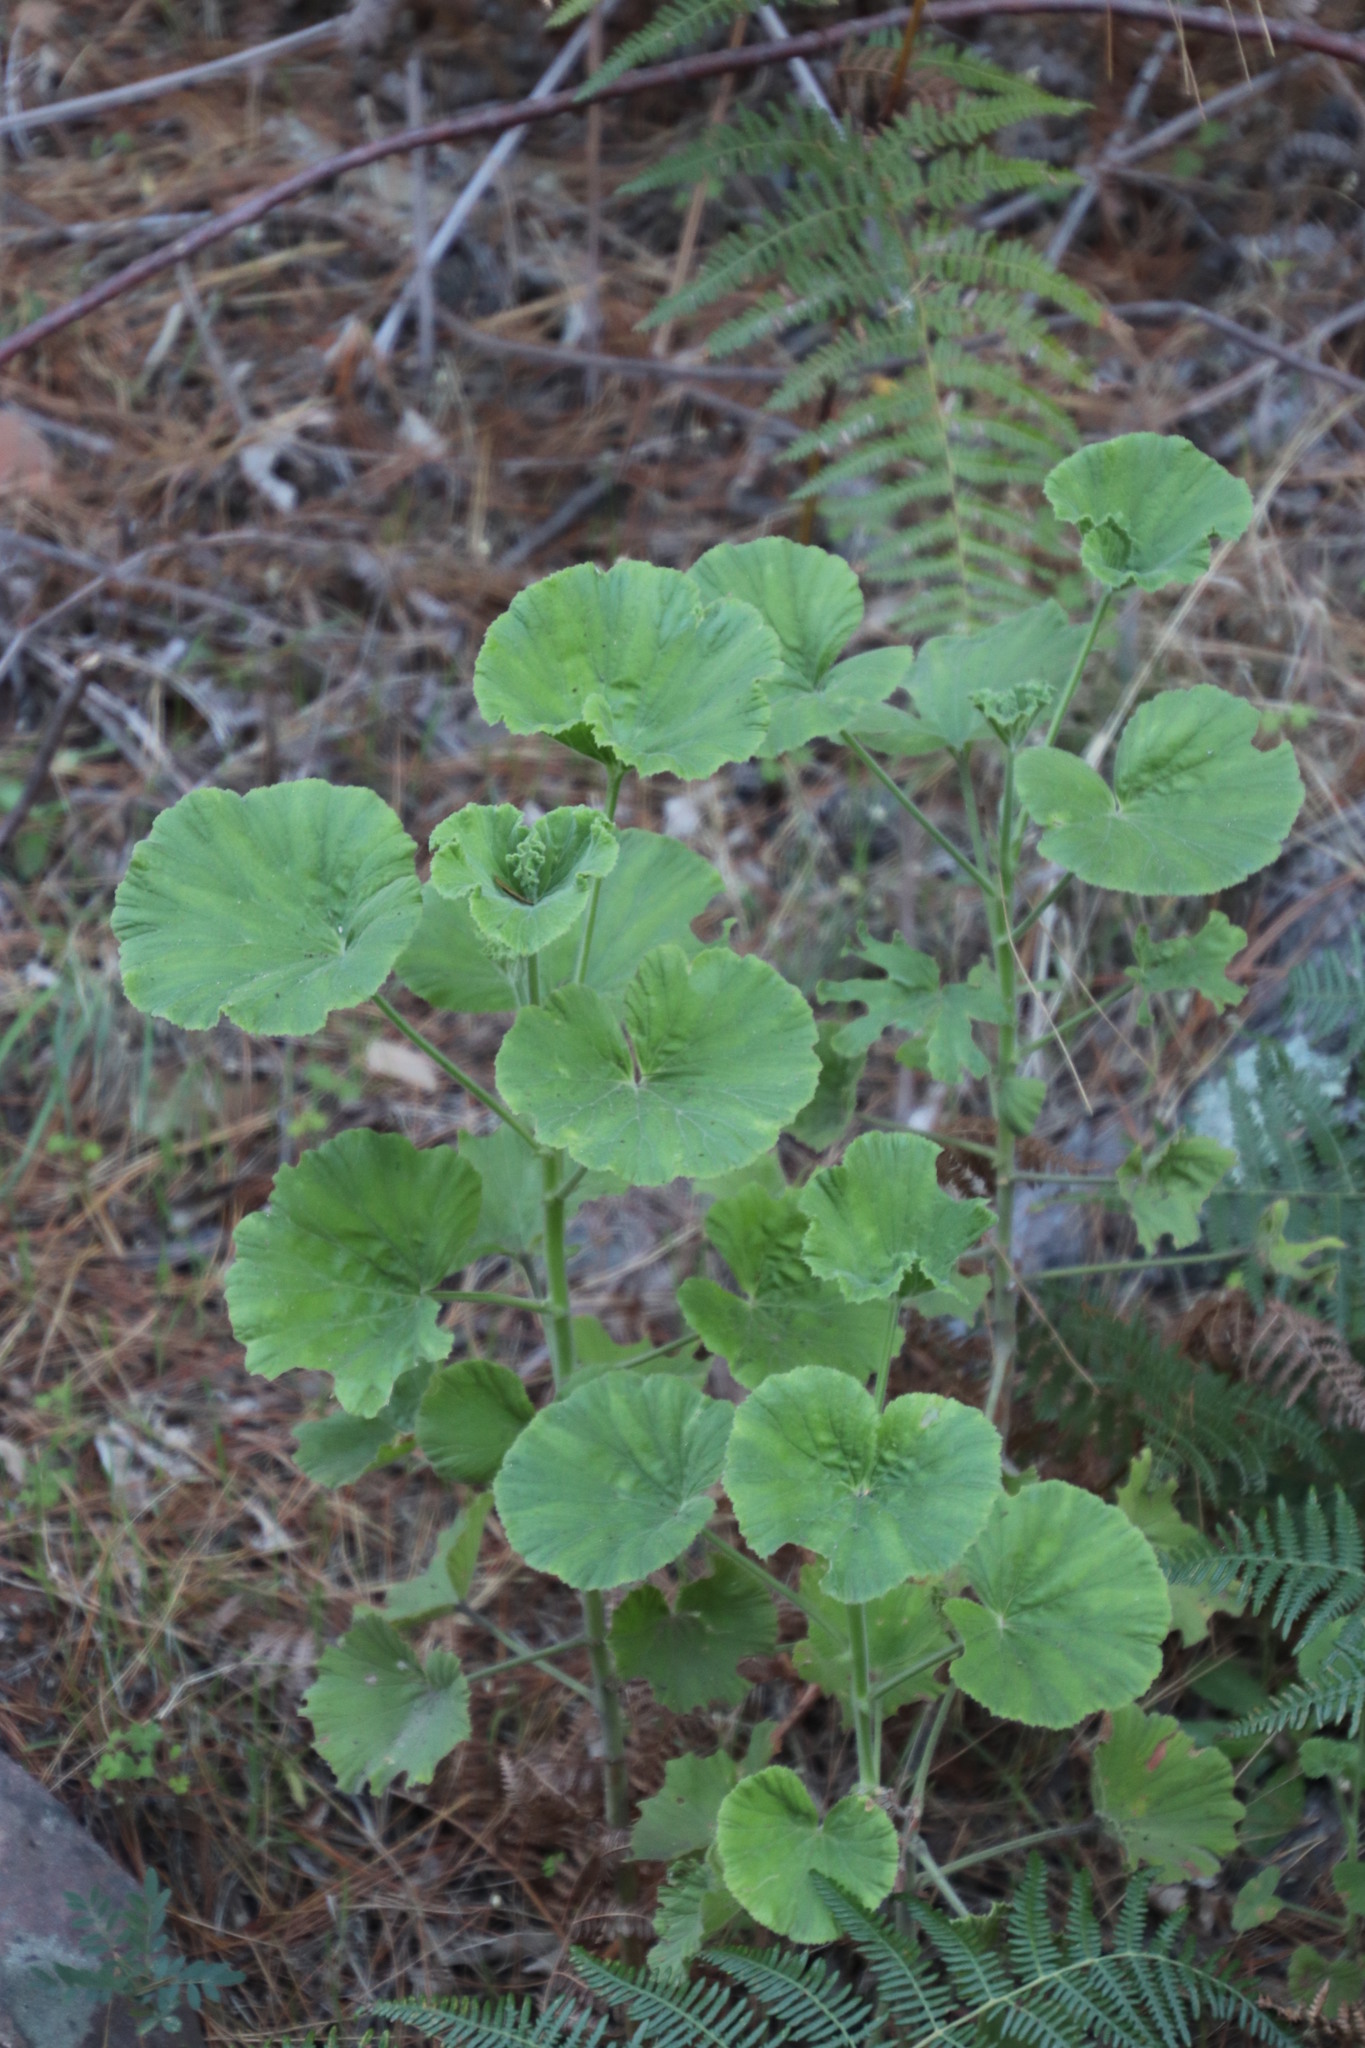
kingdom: Plantae
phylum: Tracheophyta
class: Magnoliopsida
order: Geraniales
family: Geraniaceae
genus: Pelargonium
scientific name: Pelargonium hybridum
